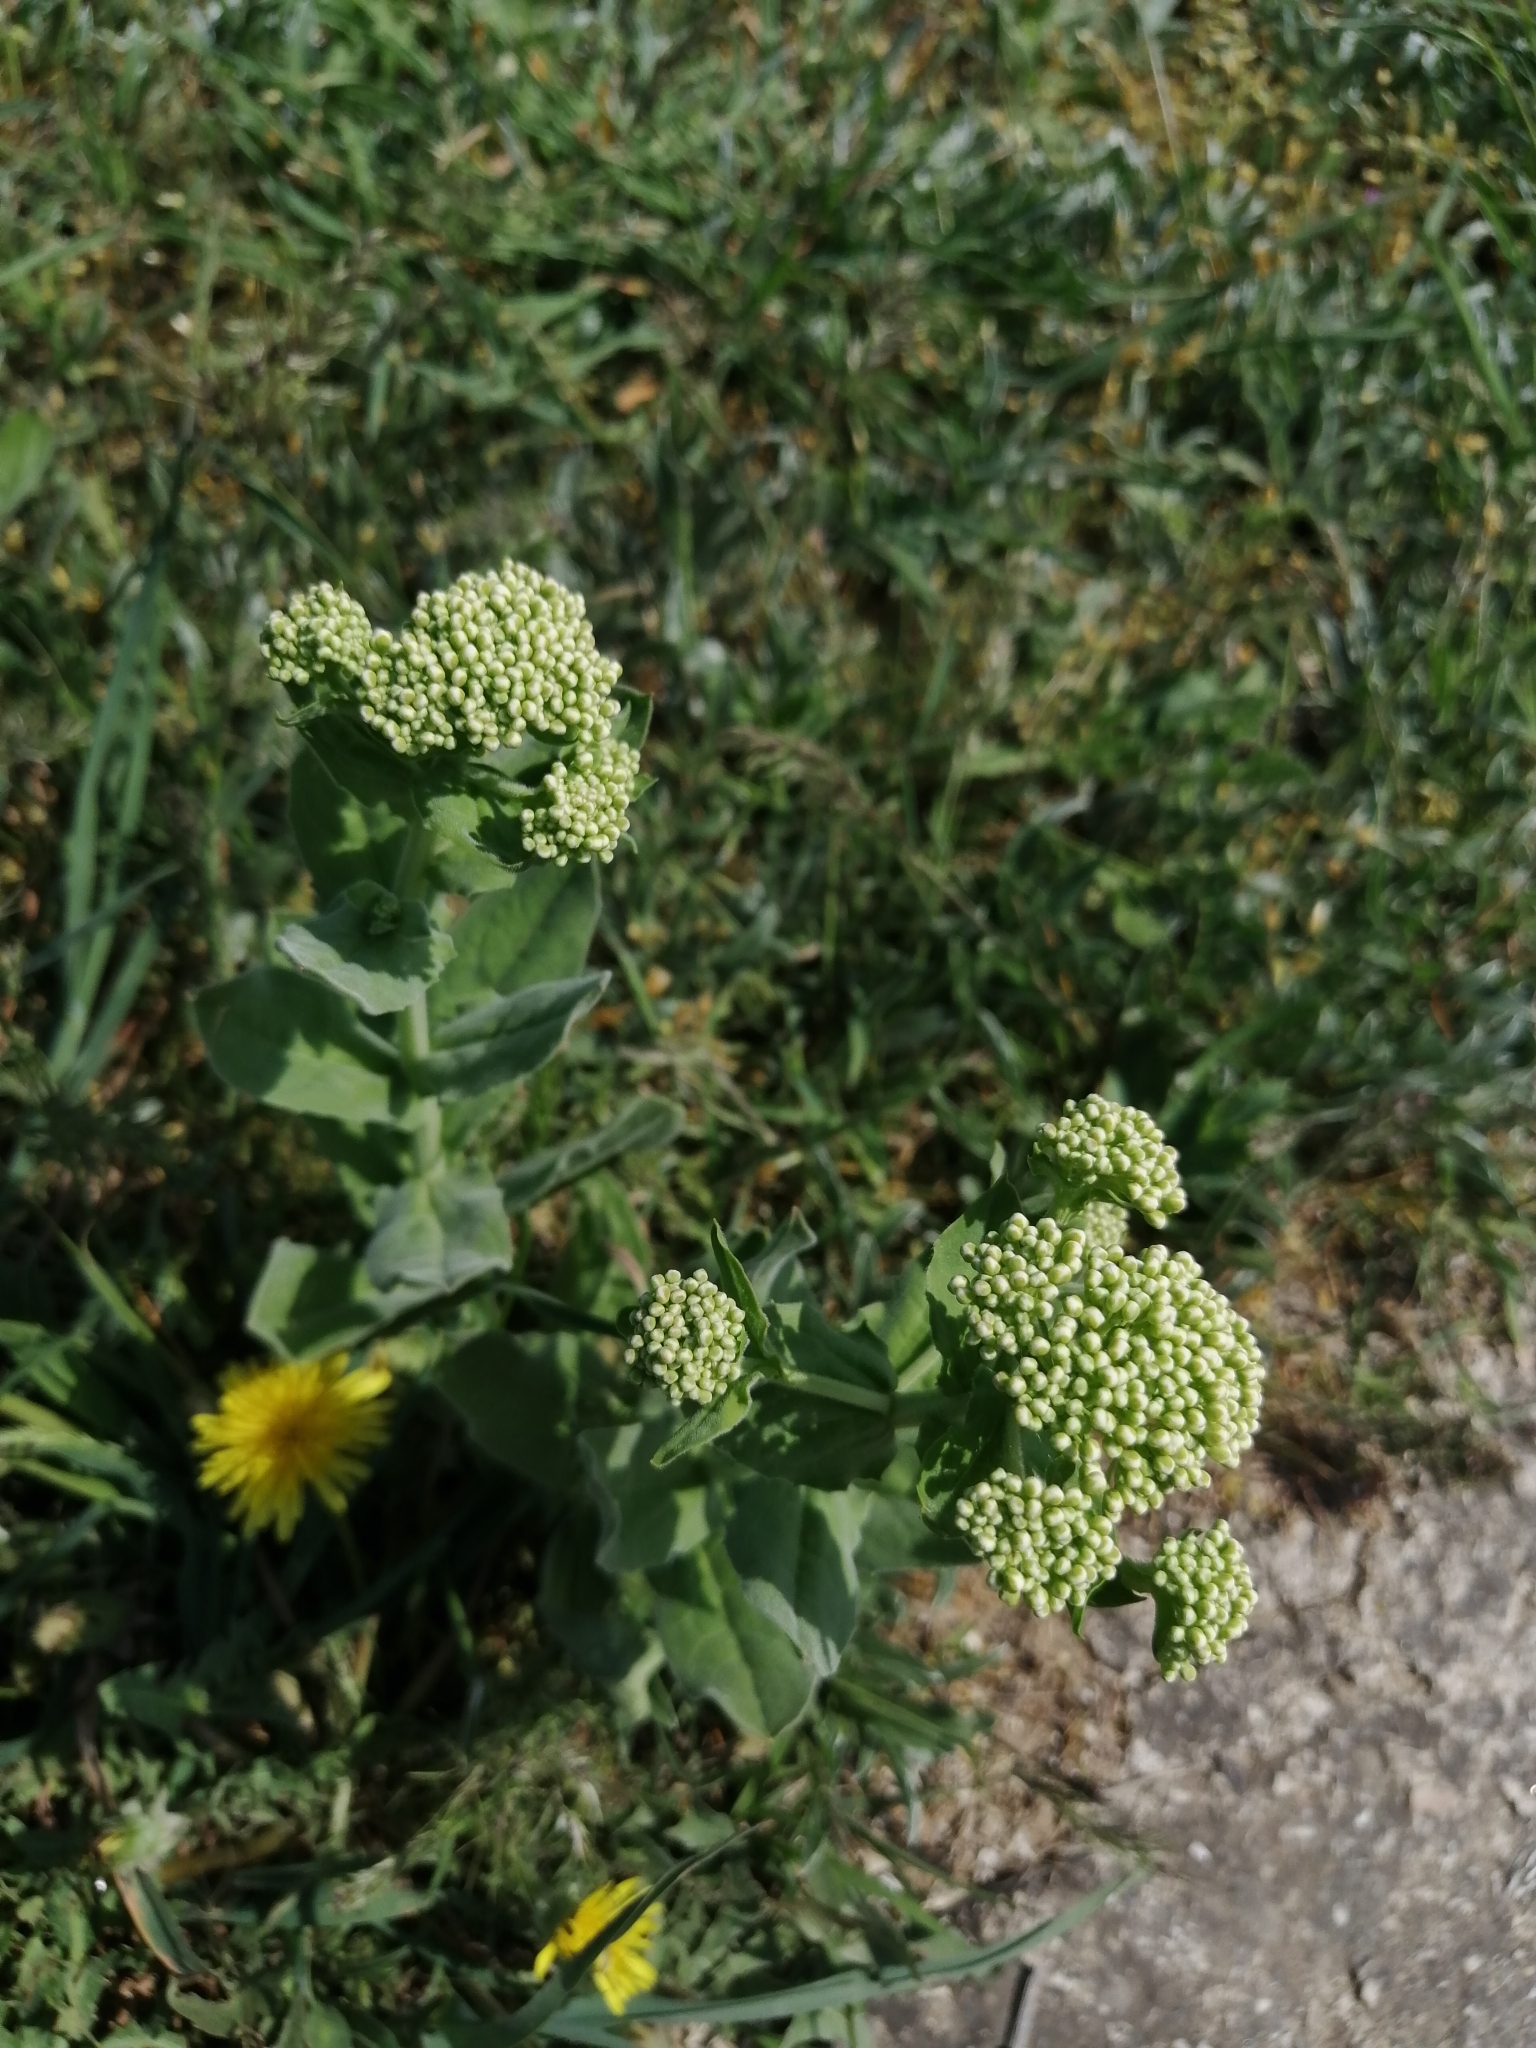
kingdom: Plantae
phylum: Tracheophyta
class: Magnoliopsida
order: Brassicales
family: Brassicaceae
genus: Lepidium
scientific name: Lepidium draba
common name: Hoary cress
